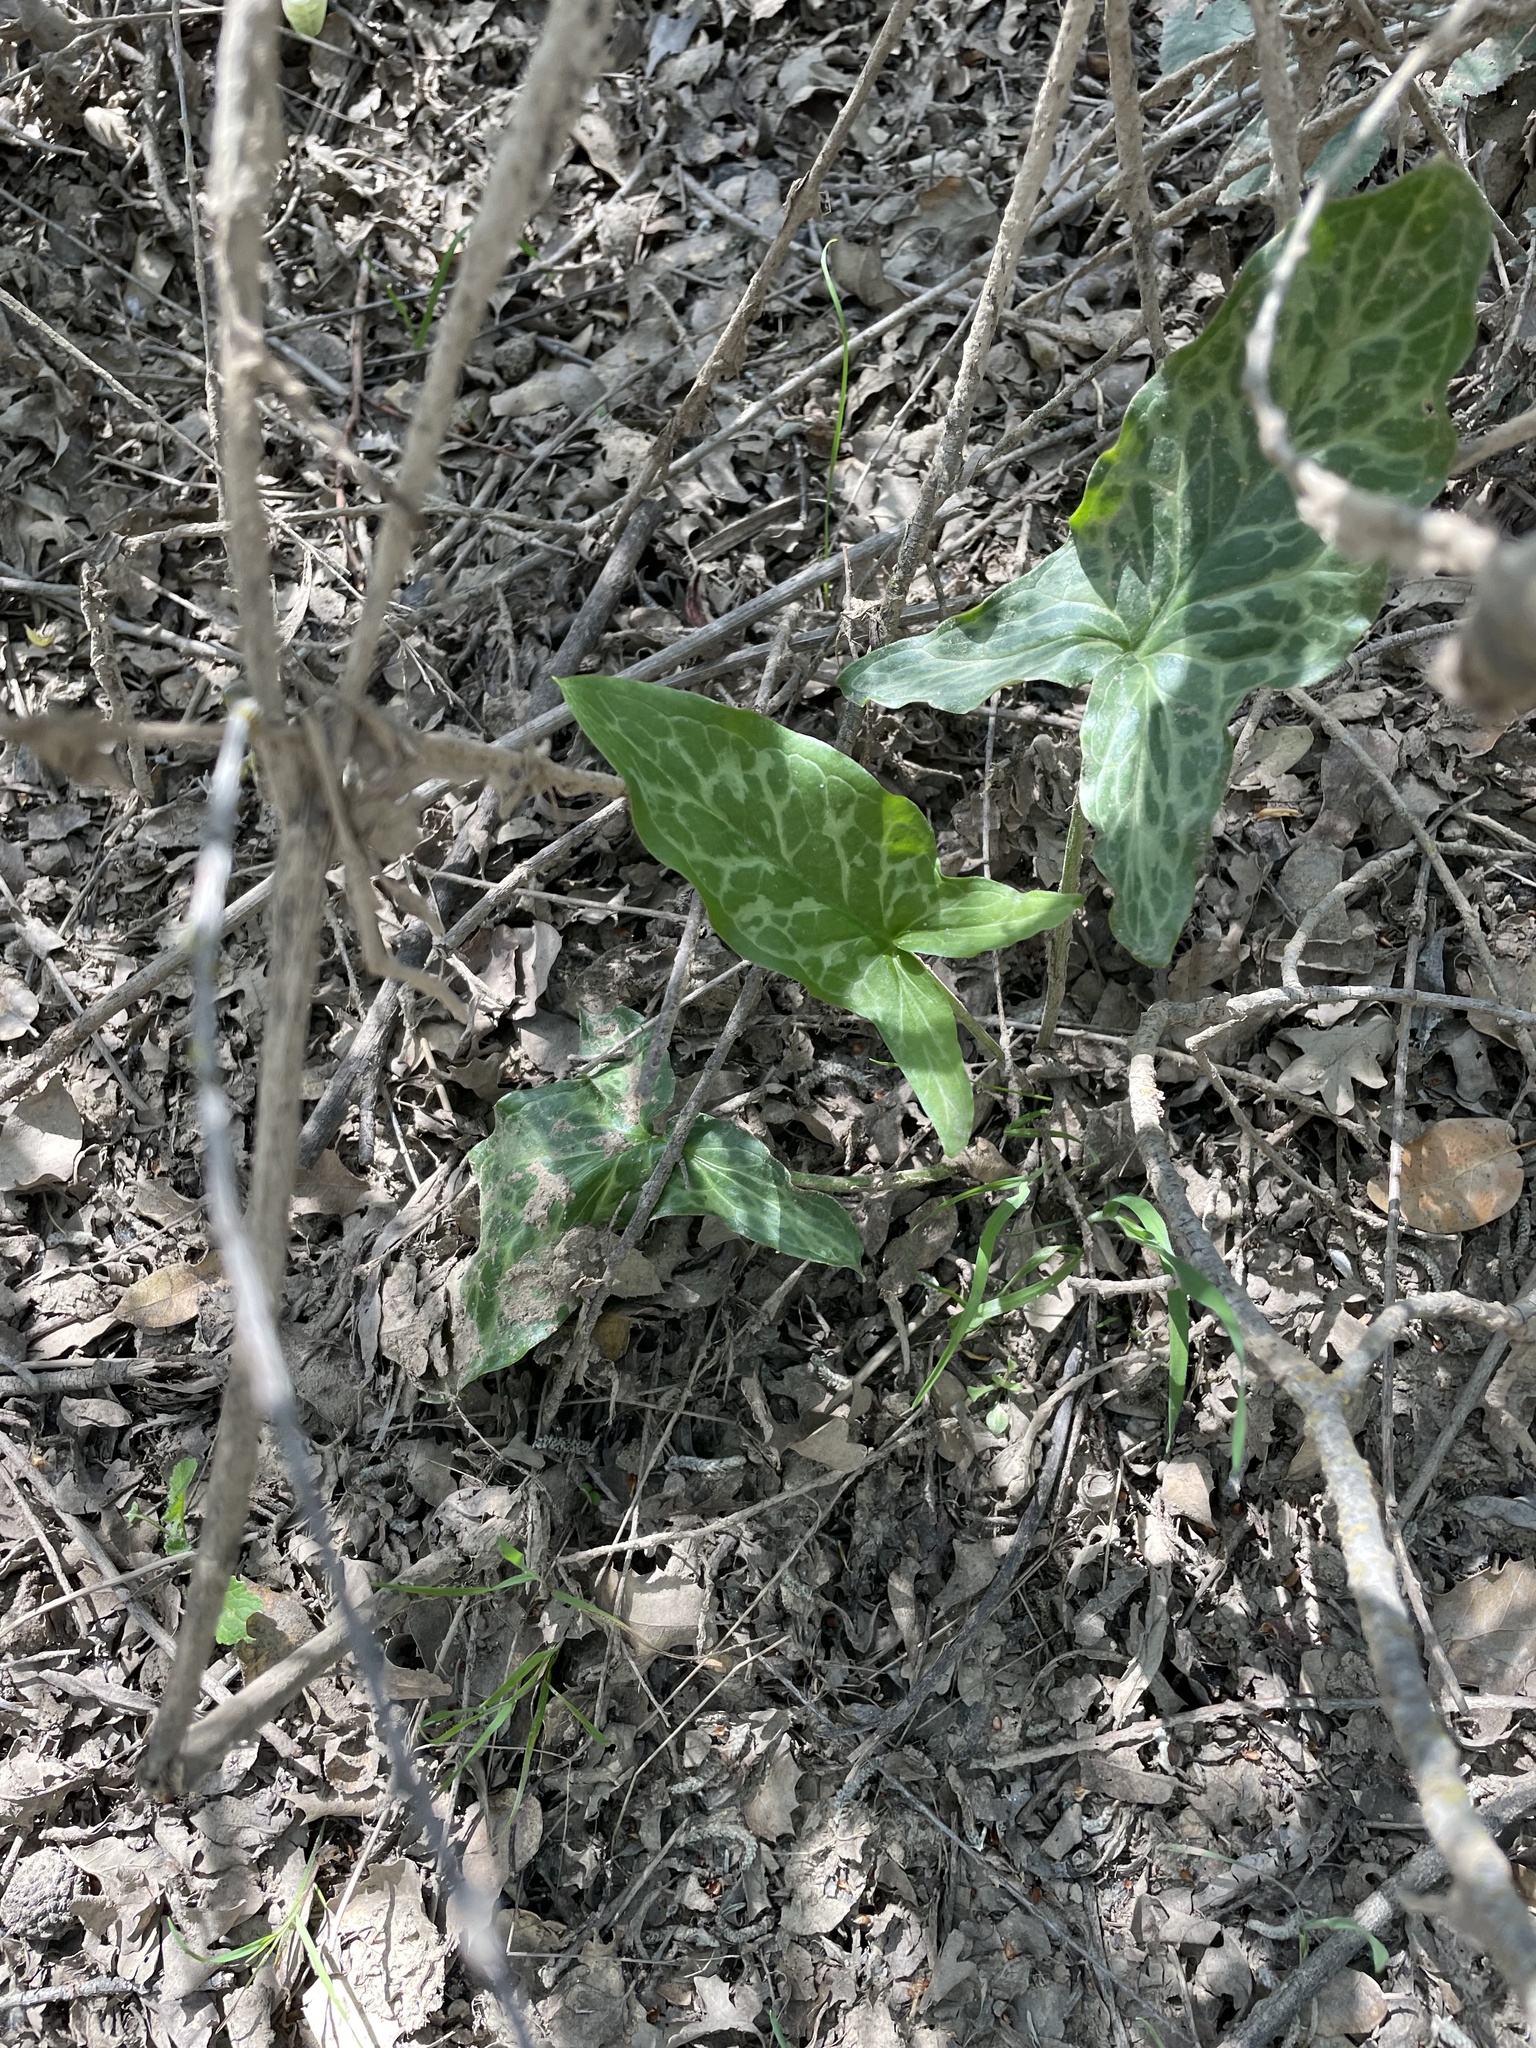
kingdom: Plantae
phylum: Tracheophyta
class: Liliopsida
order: Alismatales
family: Araceae
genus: Arum
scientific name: Arum italicum
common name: Italian lords-and-ladies
